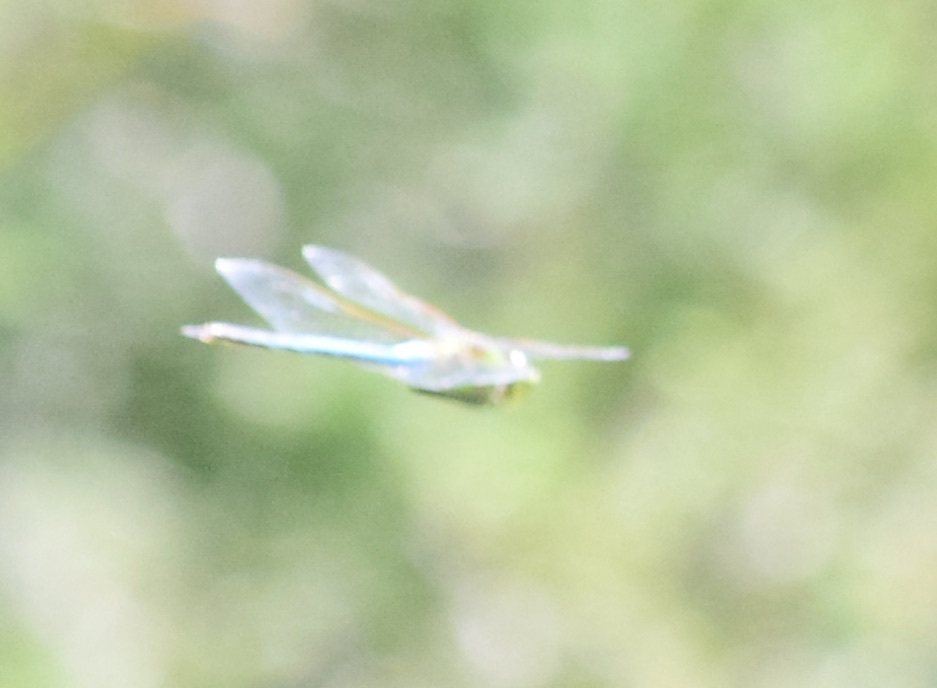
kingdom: Animalia
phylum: Arthropoda
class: Insecta
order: Odonata
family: Aeshnidae
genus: Anax
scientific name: Anax junius
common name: Common green darner
